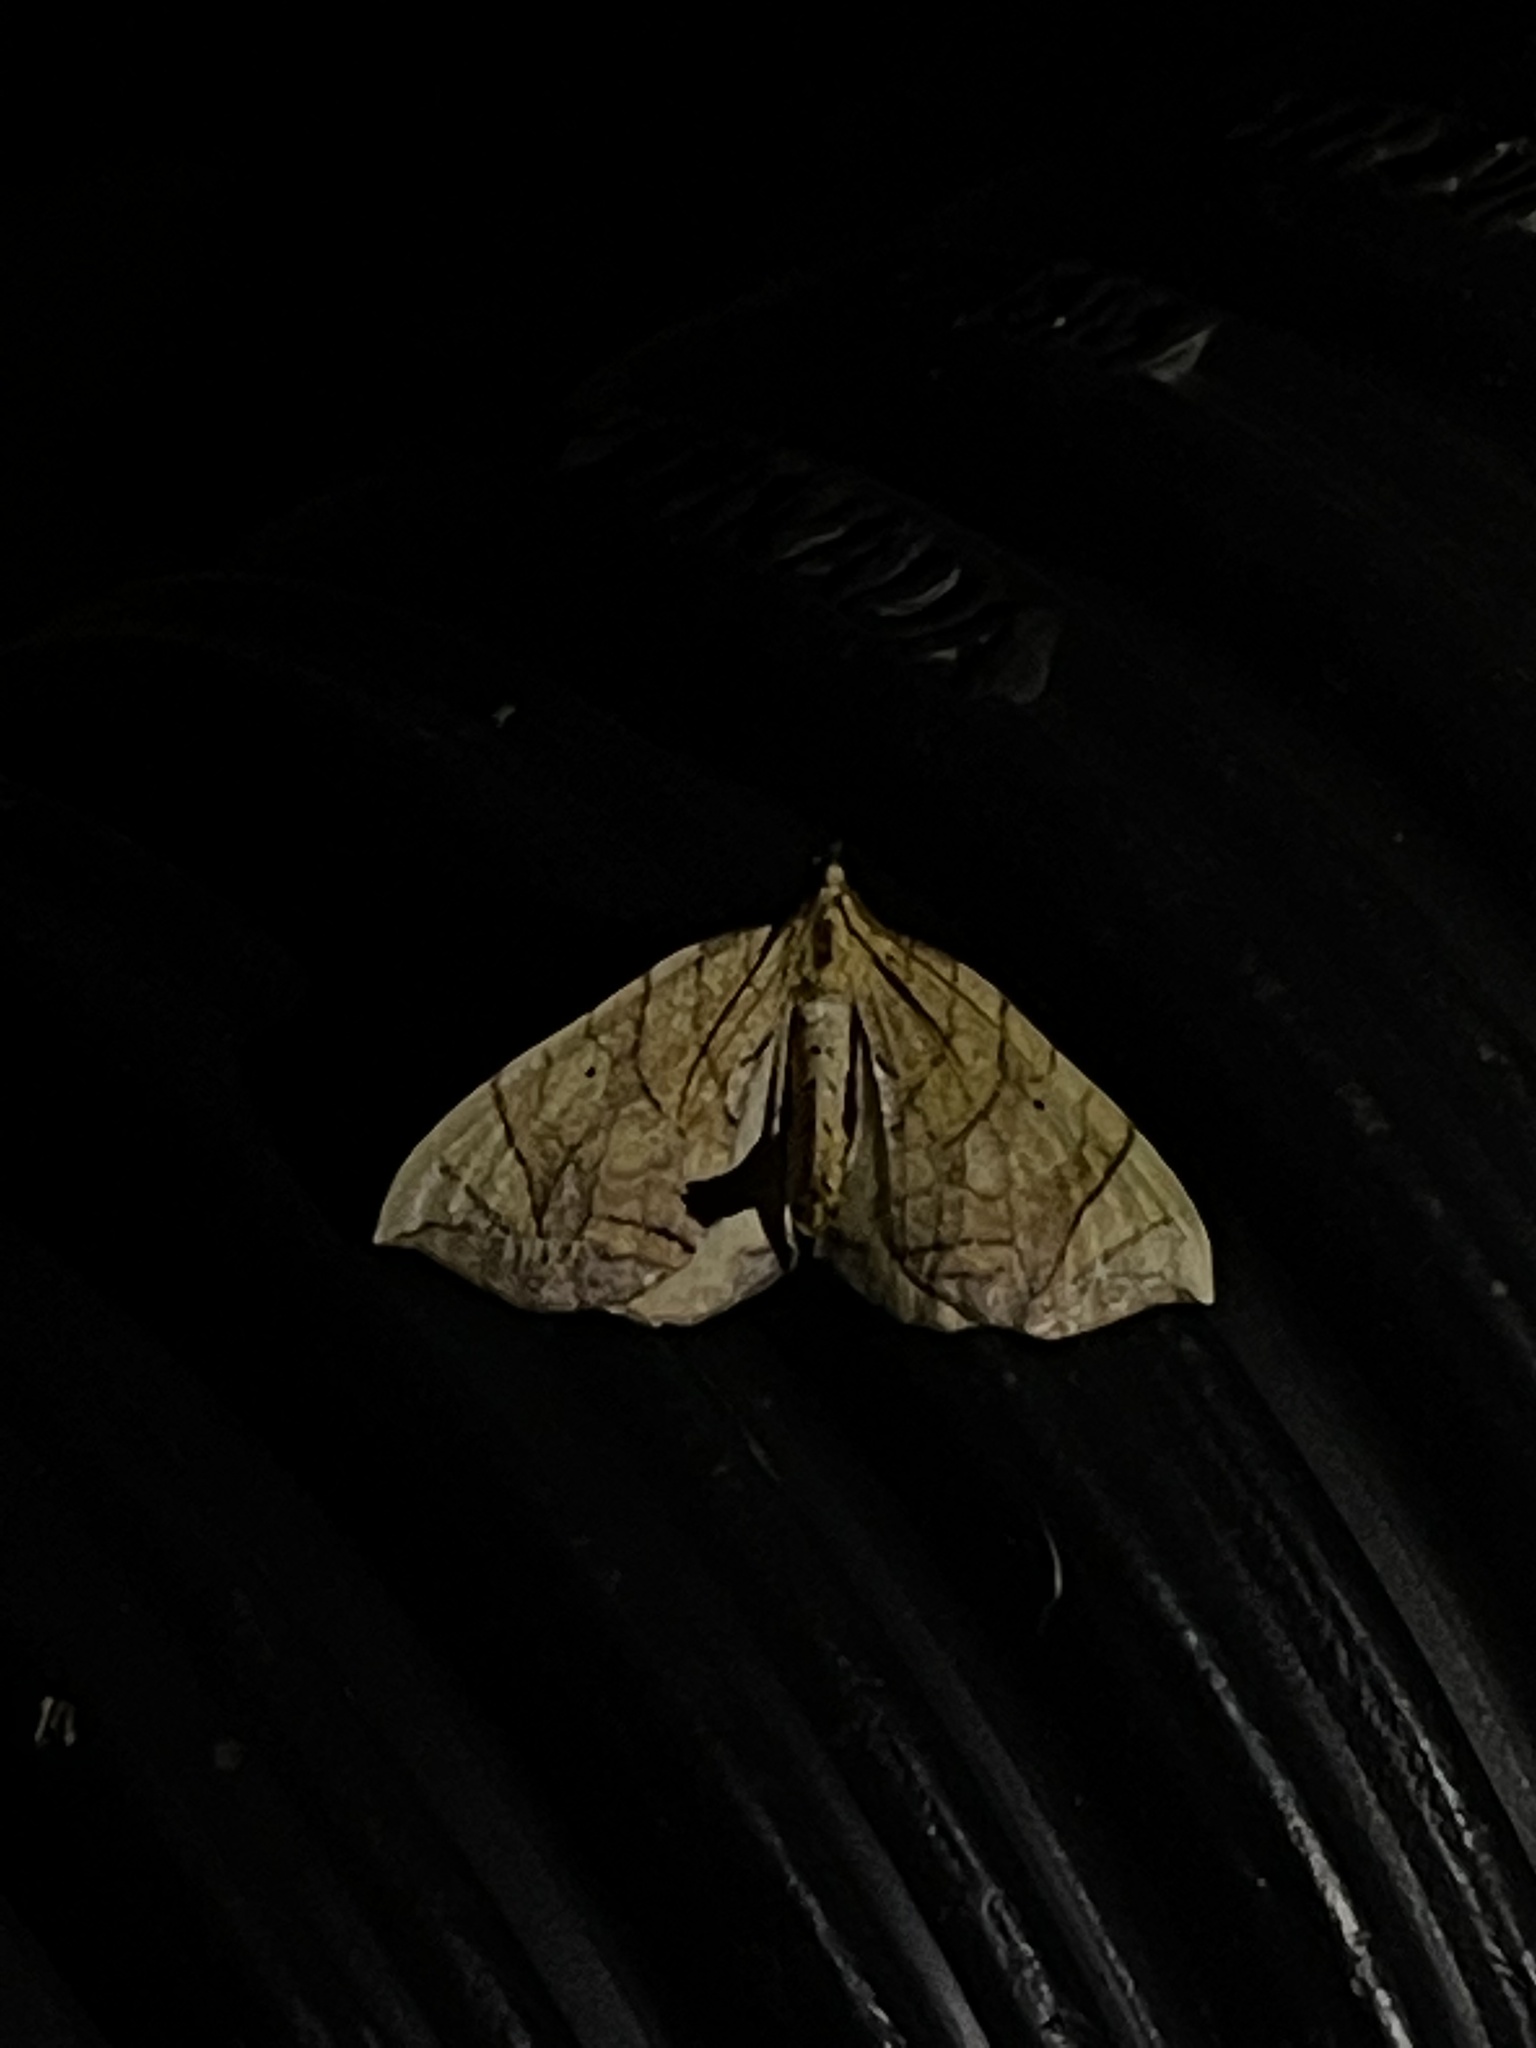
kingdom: Animalia
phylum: Arthropoda
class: Insecta
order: Lepidoptera
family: Geometridae
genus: Eulithis
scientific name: Eulithis
